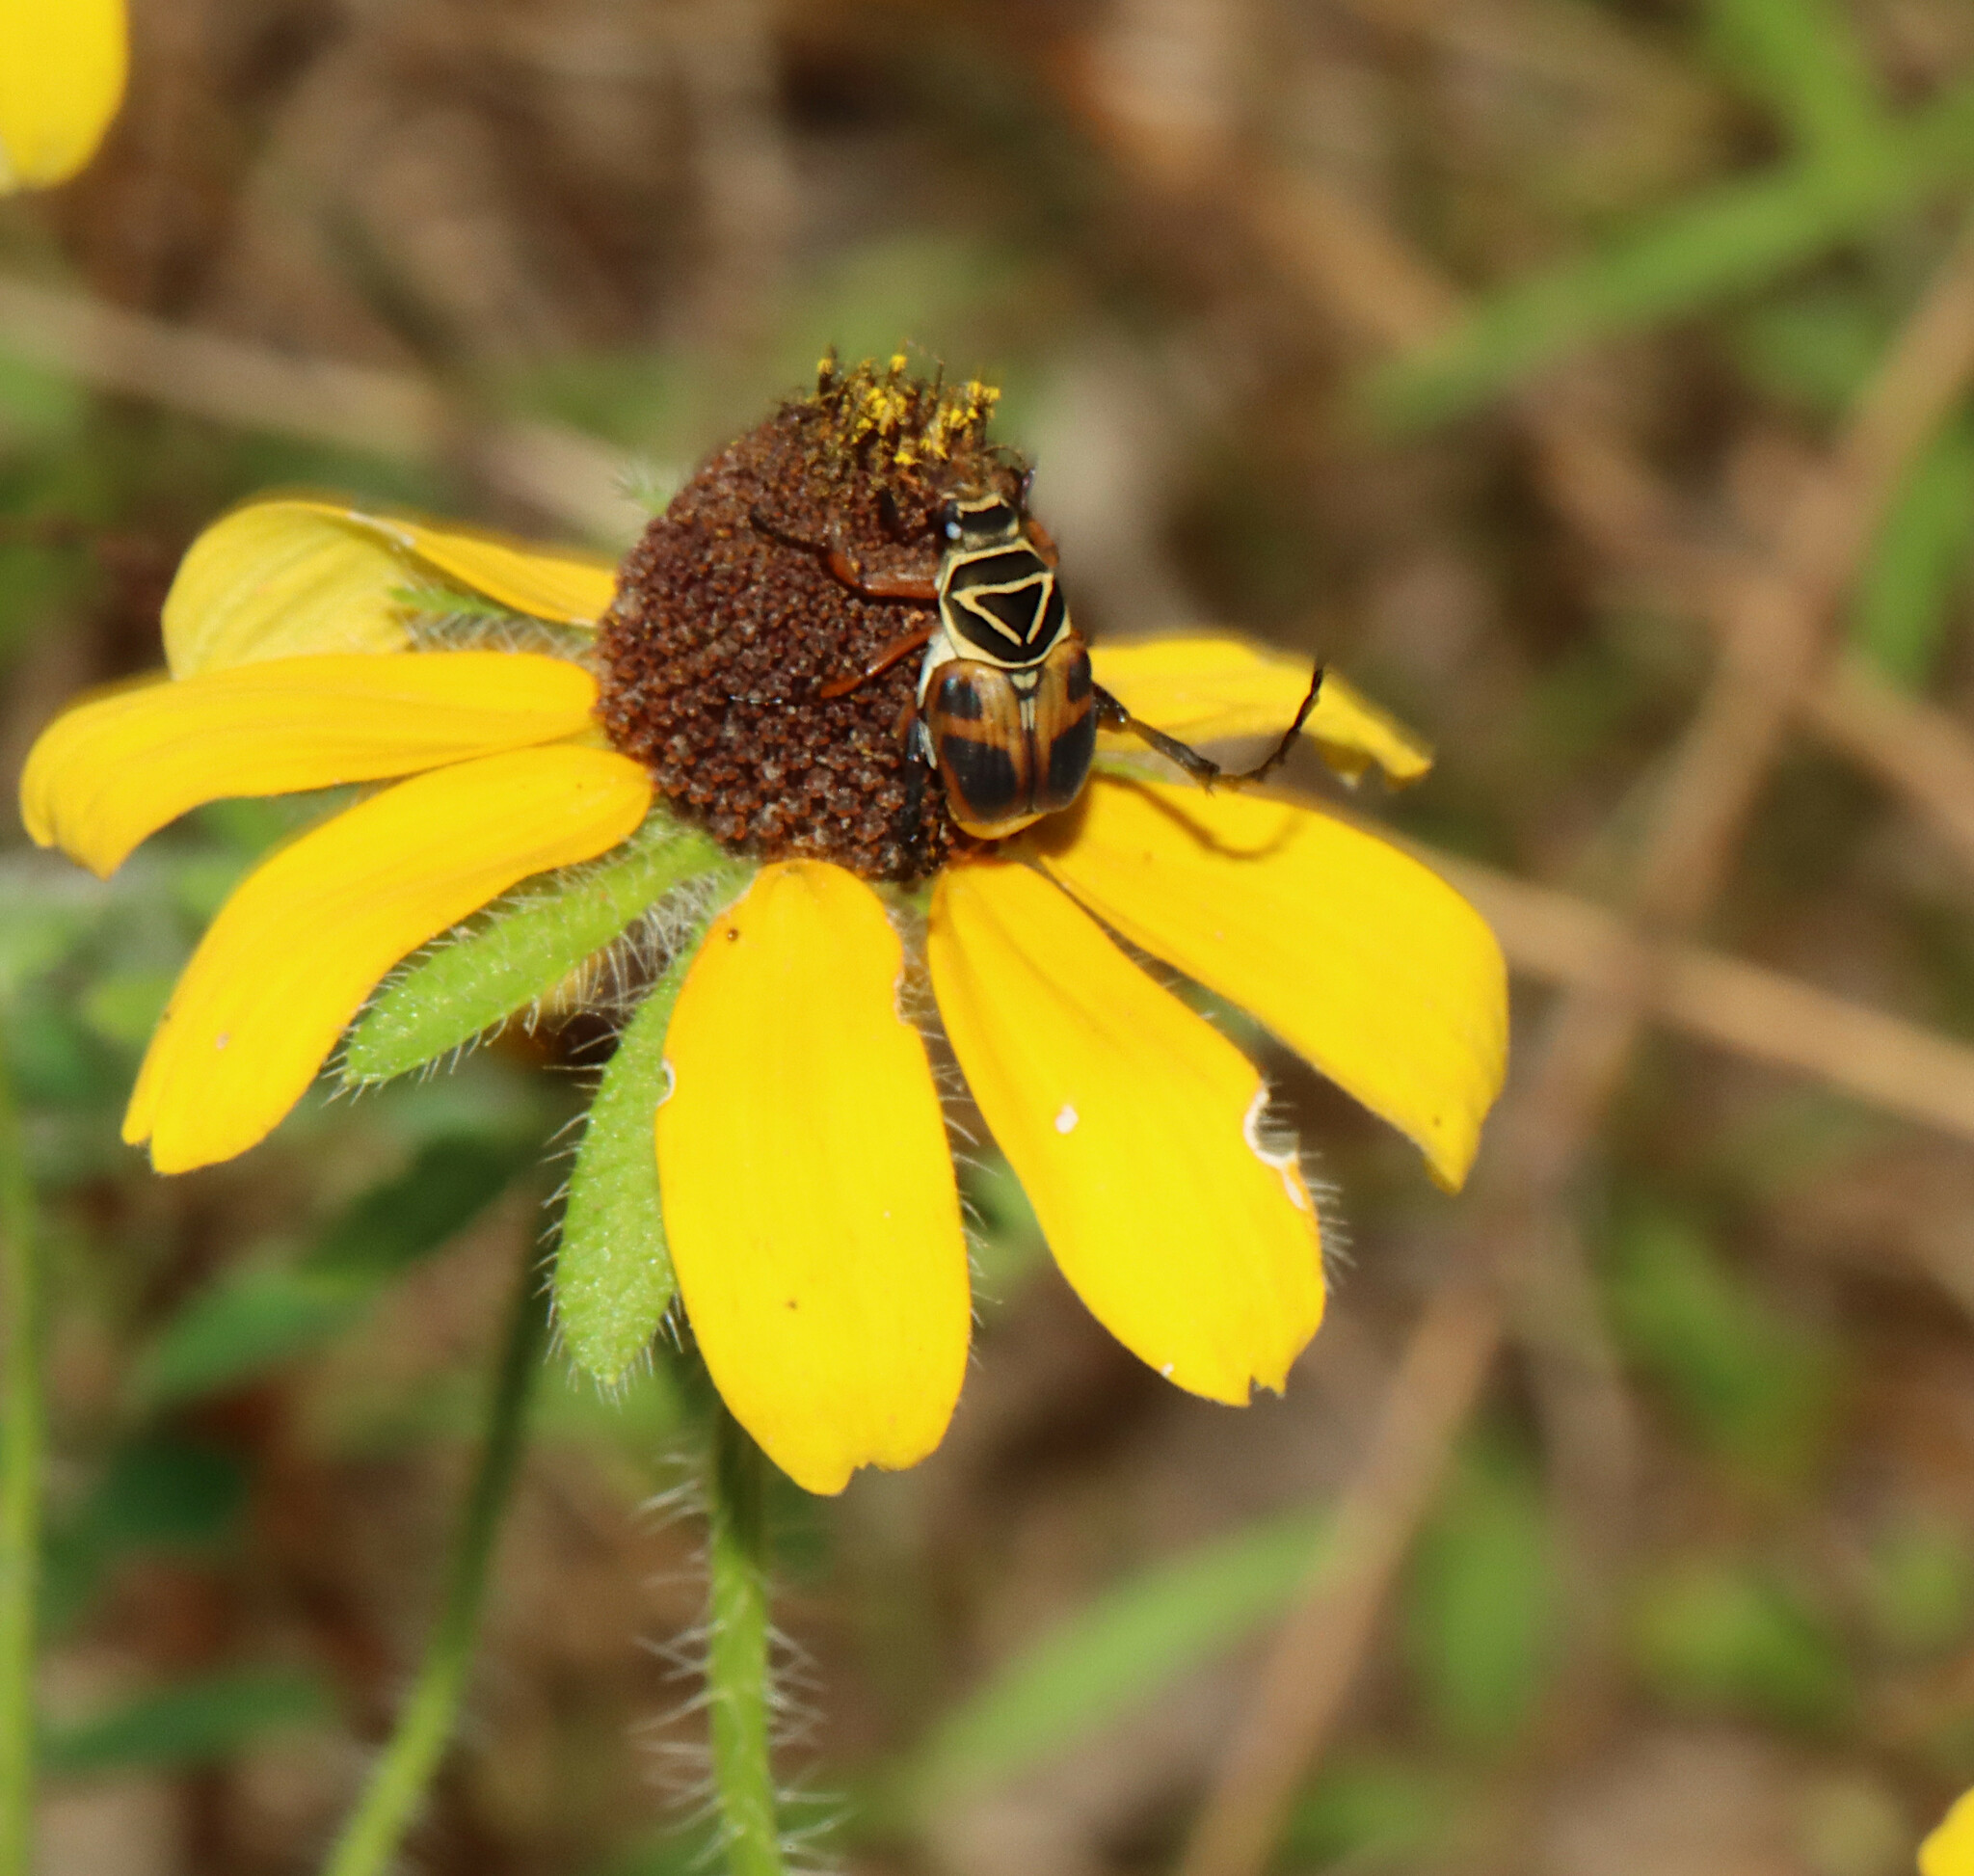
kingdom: Animalia
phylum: Arthropoda
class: Insecta
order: Coleoptera
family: Scarabaeidae
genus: Trigonopeltastes
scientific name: Trigonopeltastes delta
